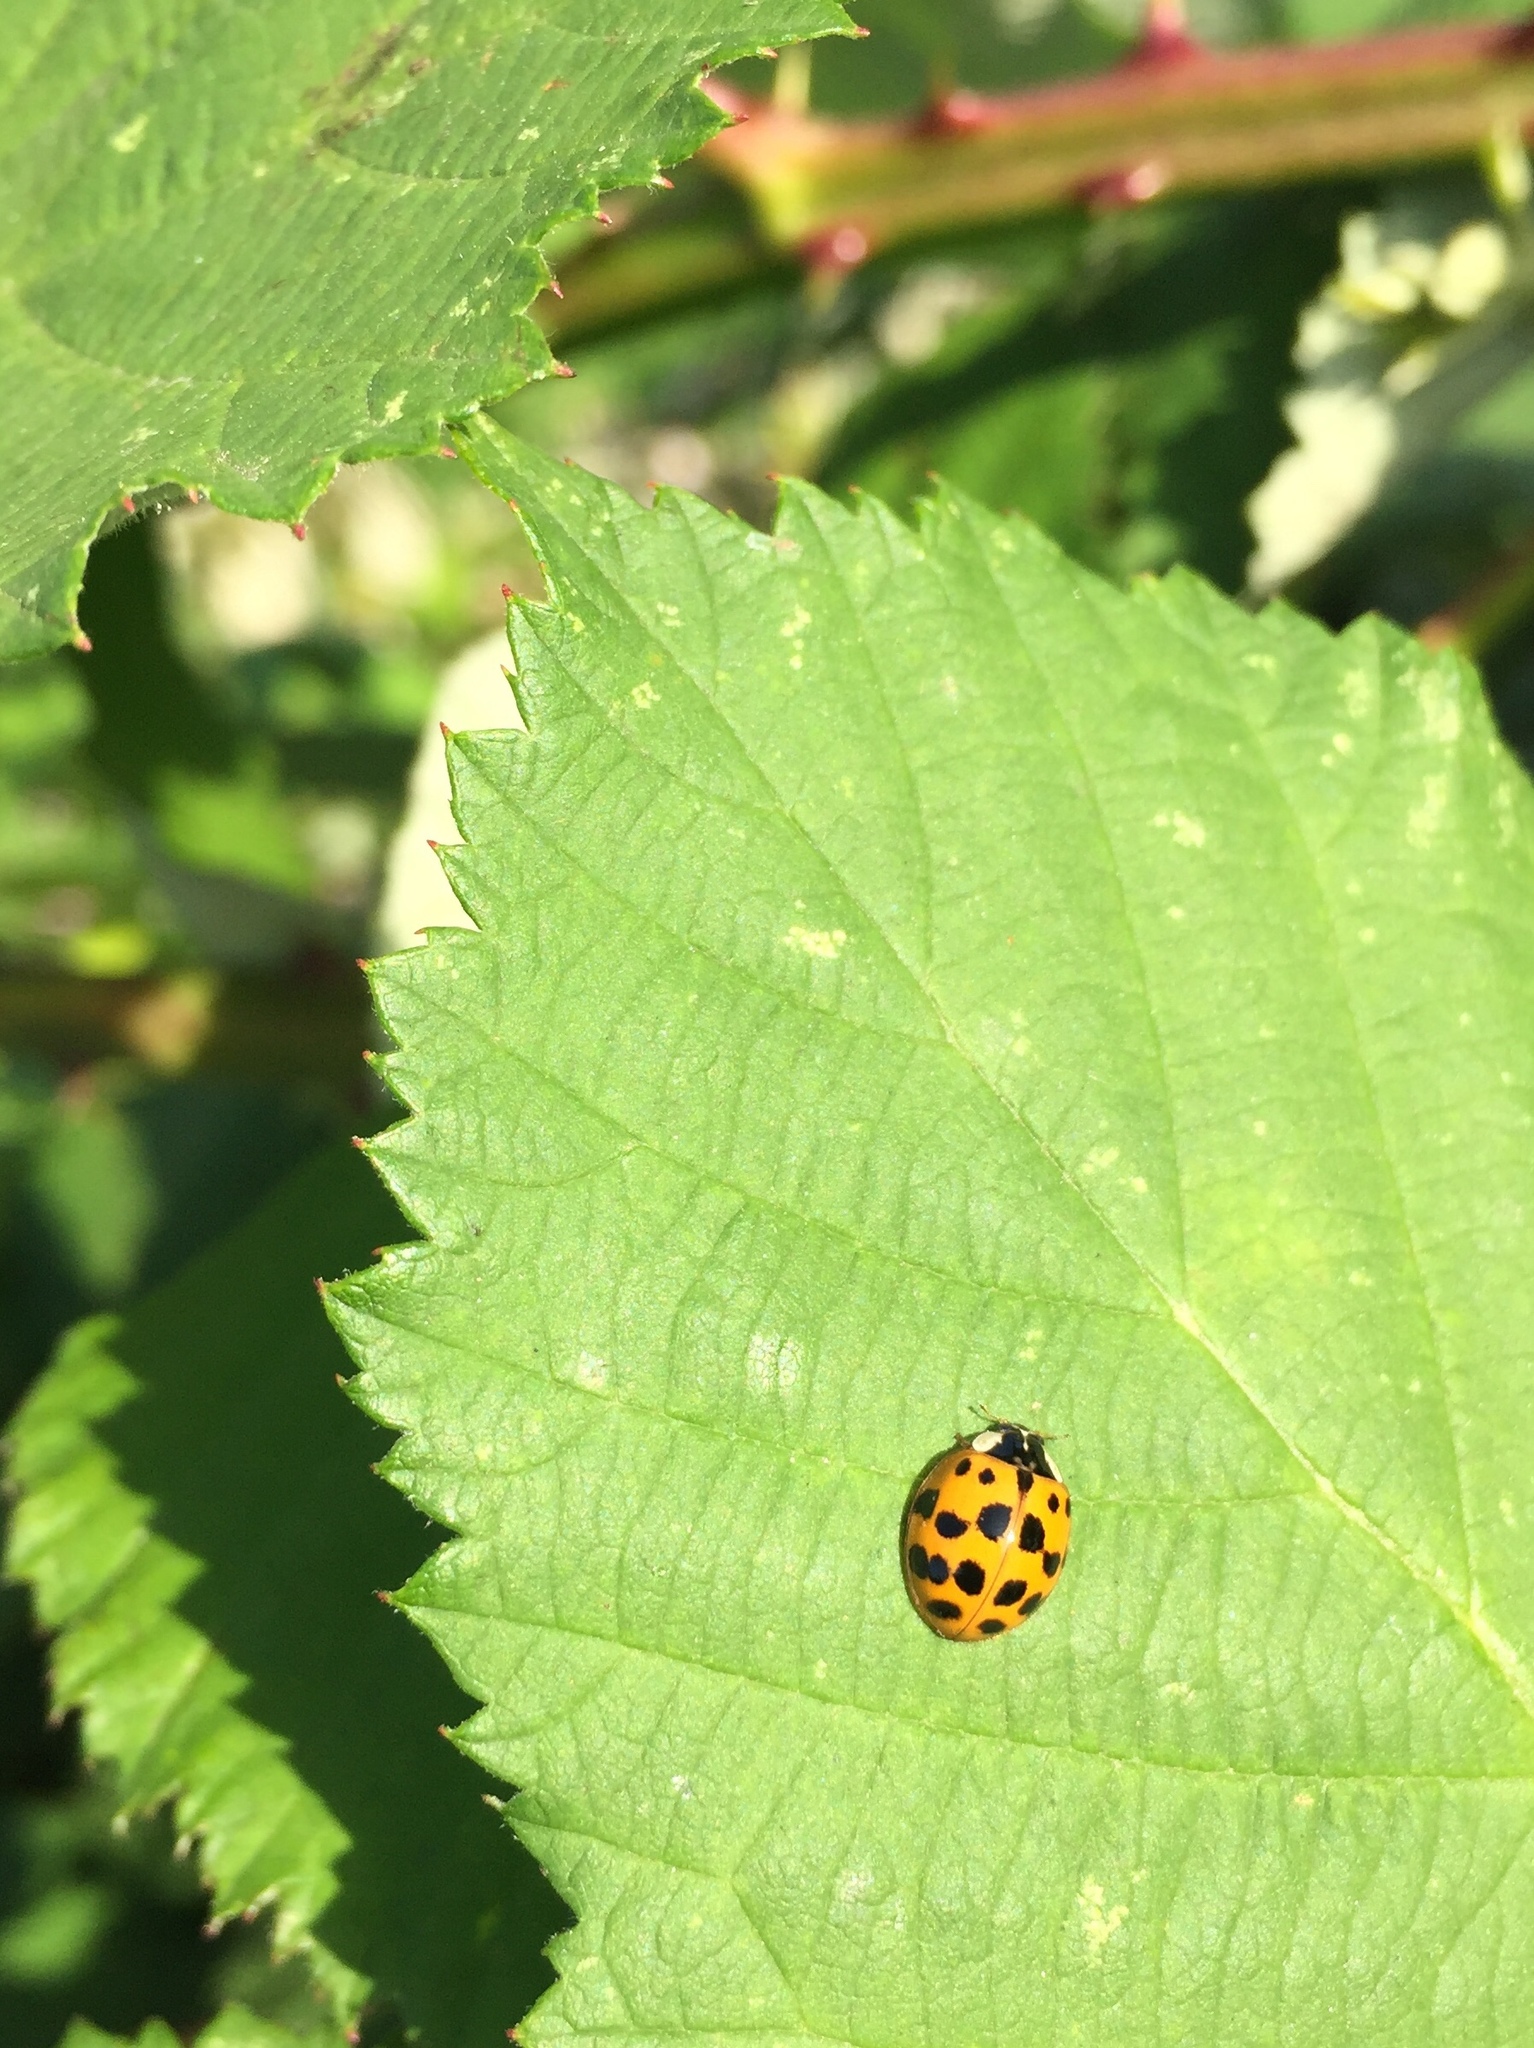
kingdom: Animalia
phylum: Arthropoda
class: Insecta
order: Coleoptera
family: Coccinellidae
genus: Harmonia
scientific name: Harmonia axyridis
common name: Harlequin ladybird
